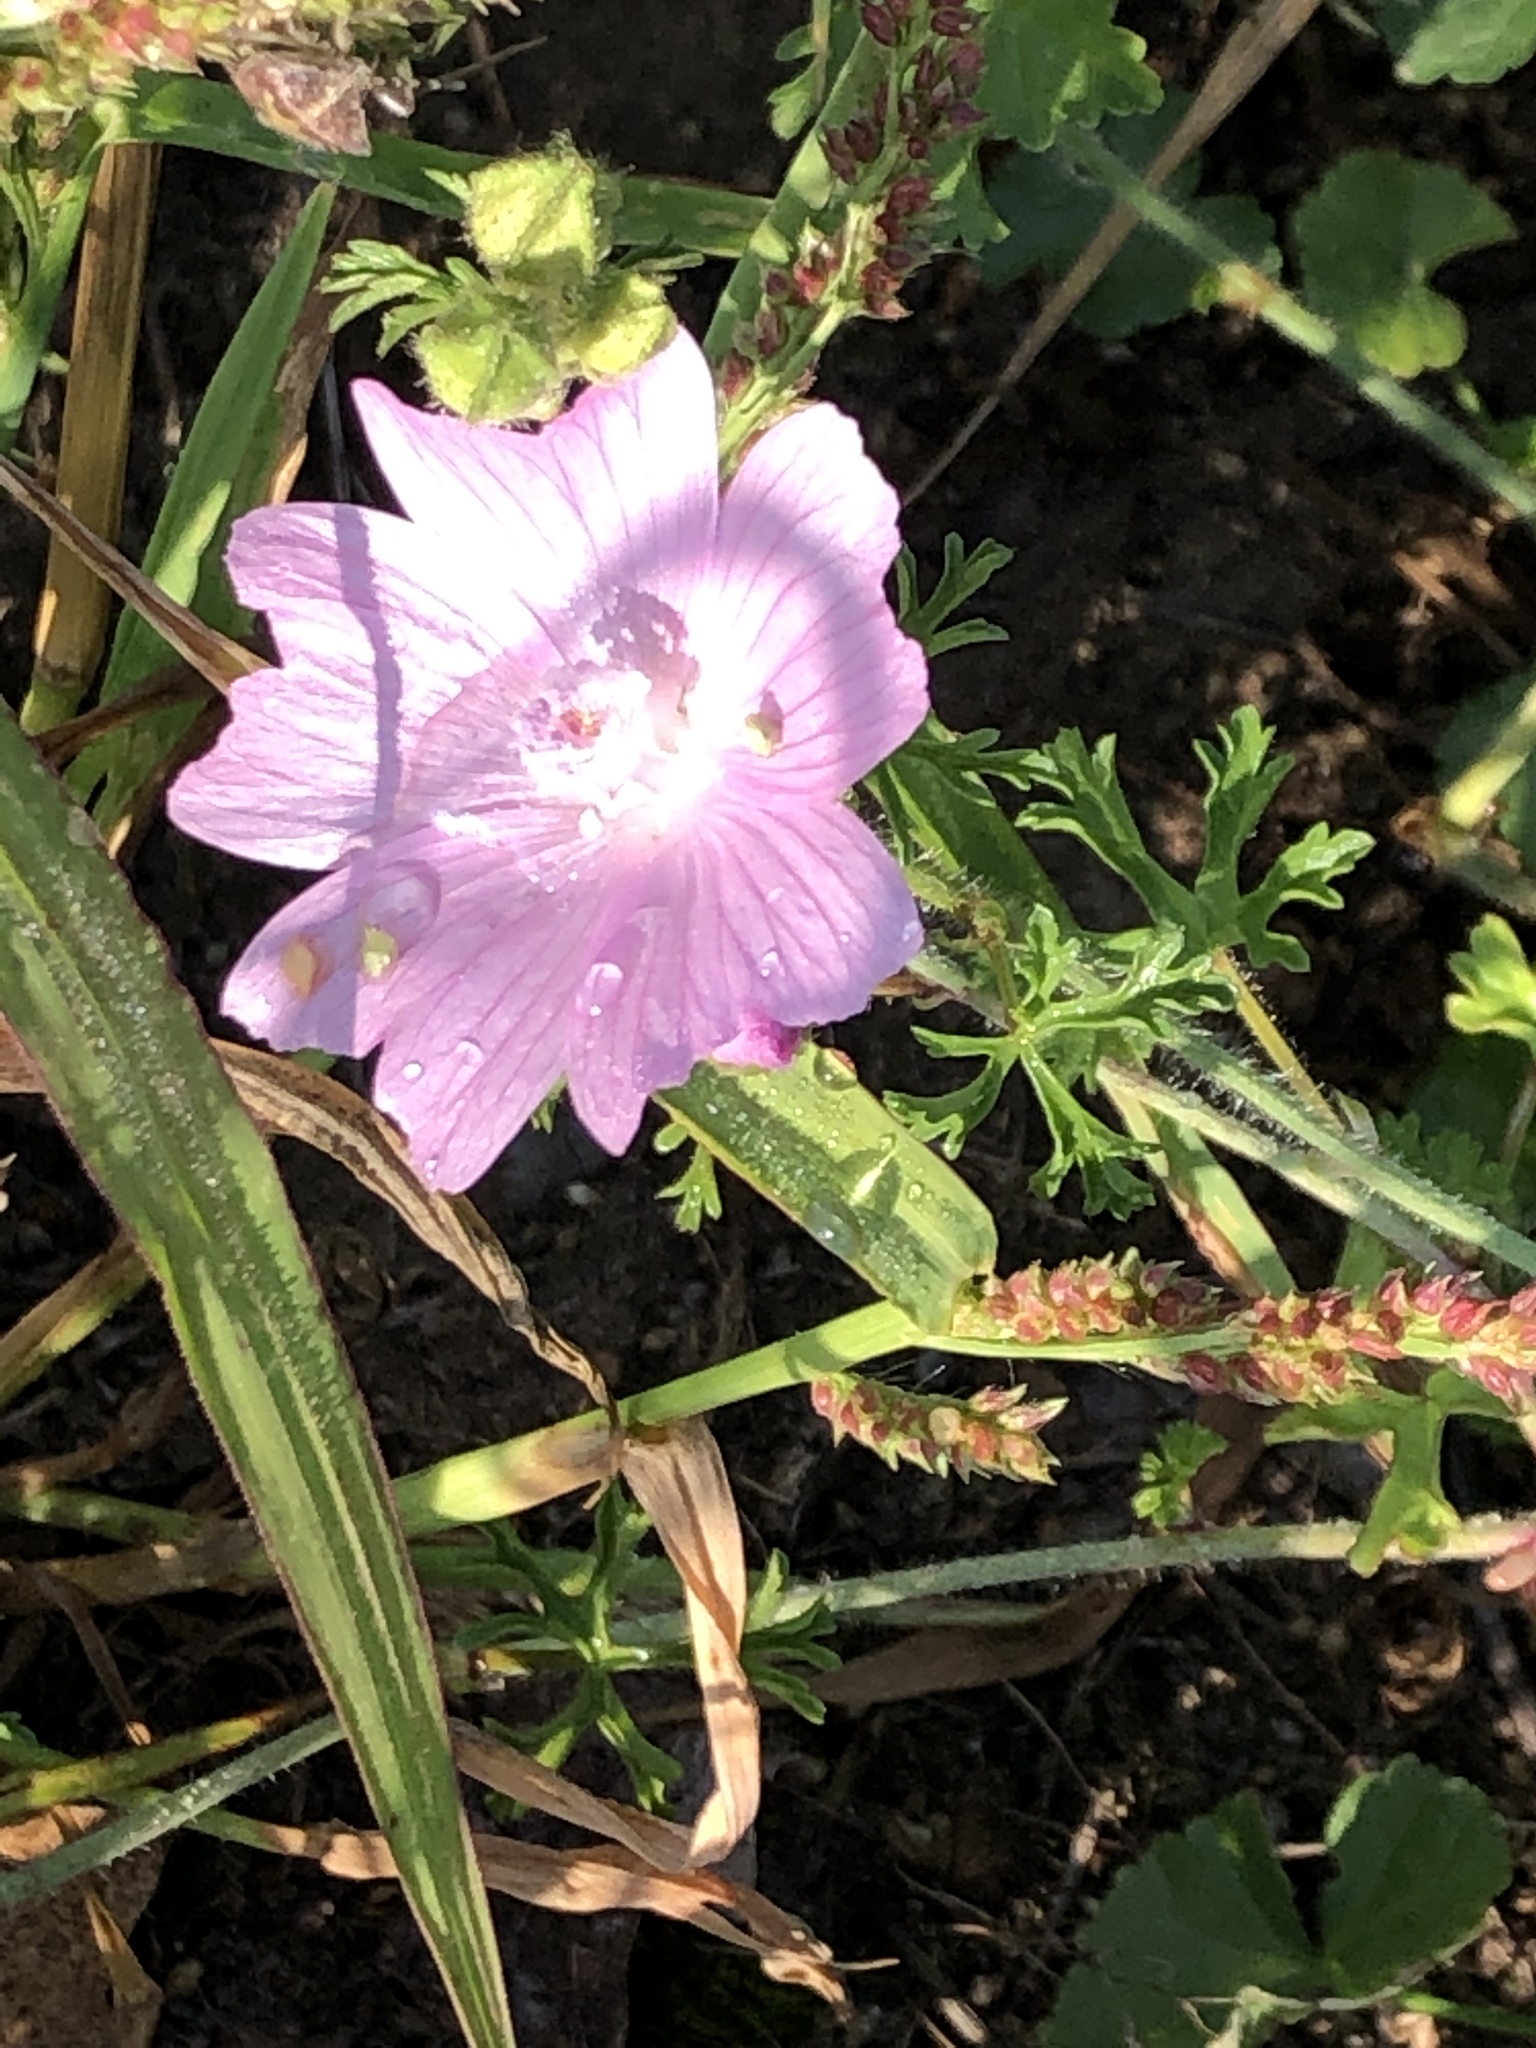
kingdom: Plantae
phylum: Tracheophyta
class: Magnoliopsida
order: Malvales
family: Malvaceae
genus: Malva
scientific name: Malva moschata
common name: Musk mallow
